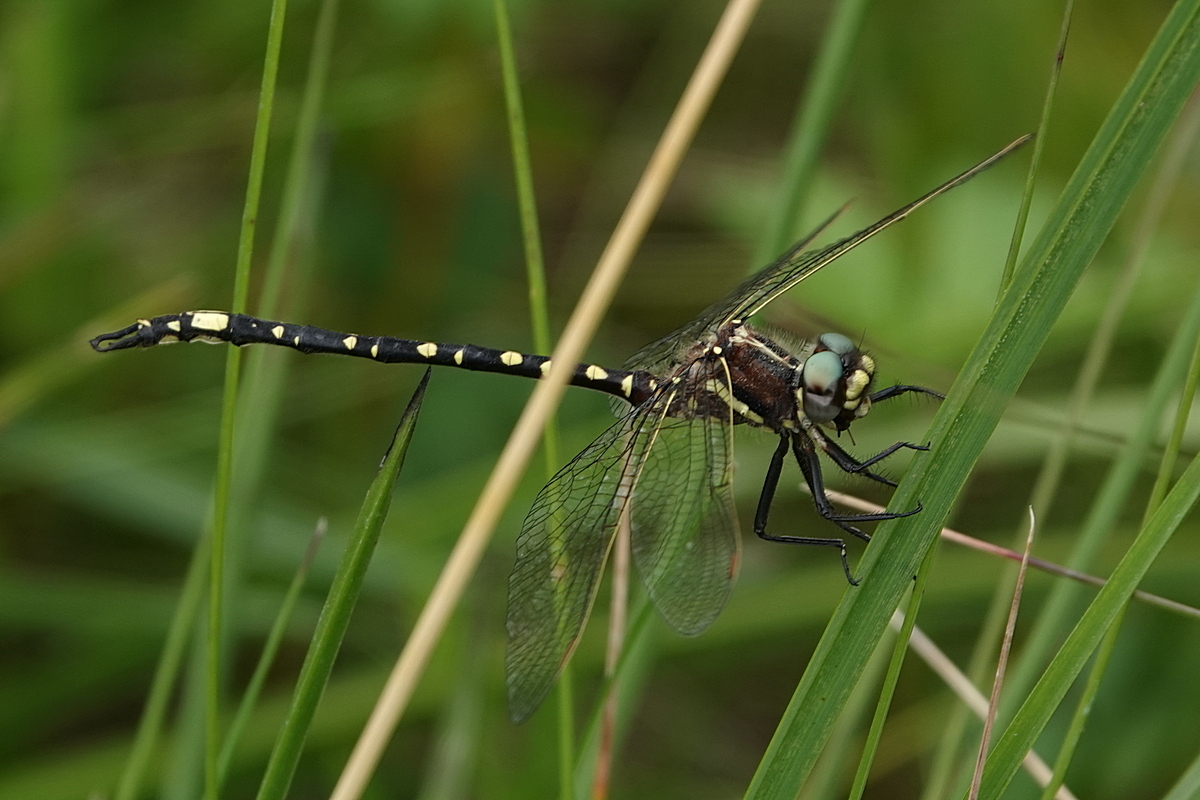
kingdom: Animalia
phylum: Arthropoda
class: Insecta
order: Odonata
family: Synthemistidae
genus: Synthemis
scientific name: Synthemis eustalacta
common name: Swamp tigertail
